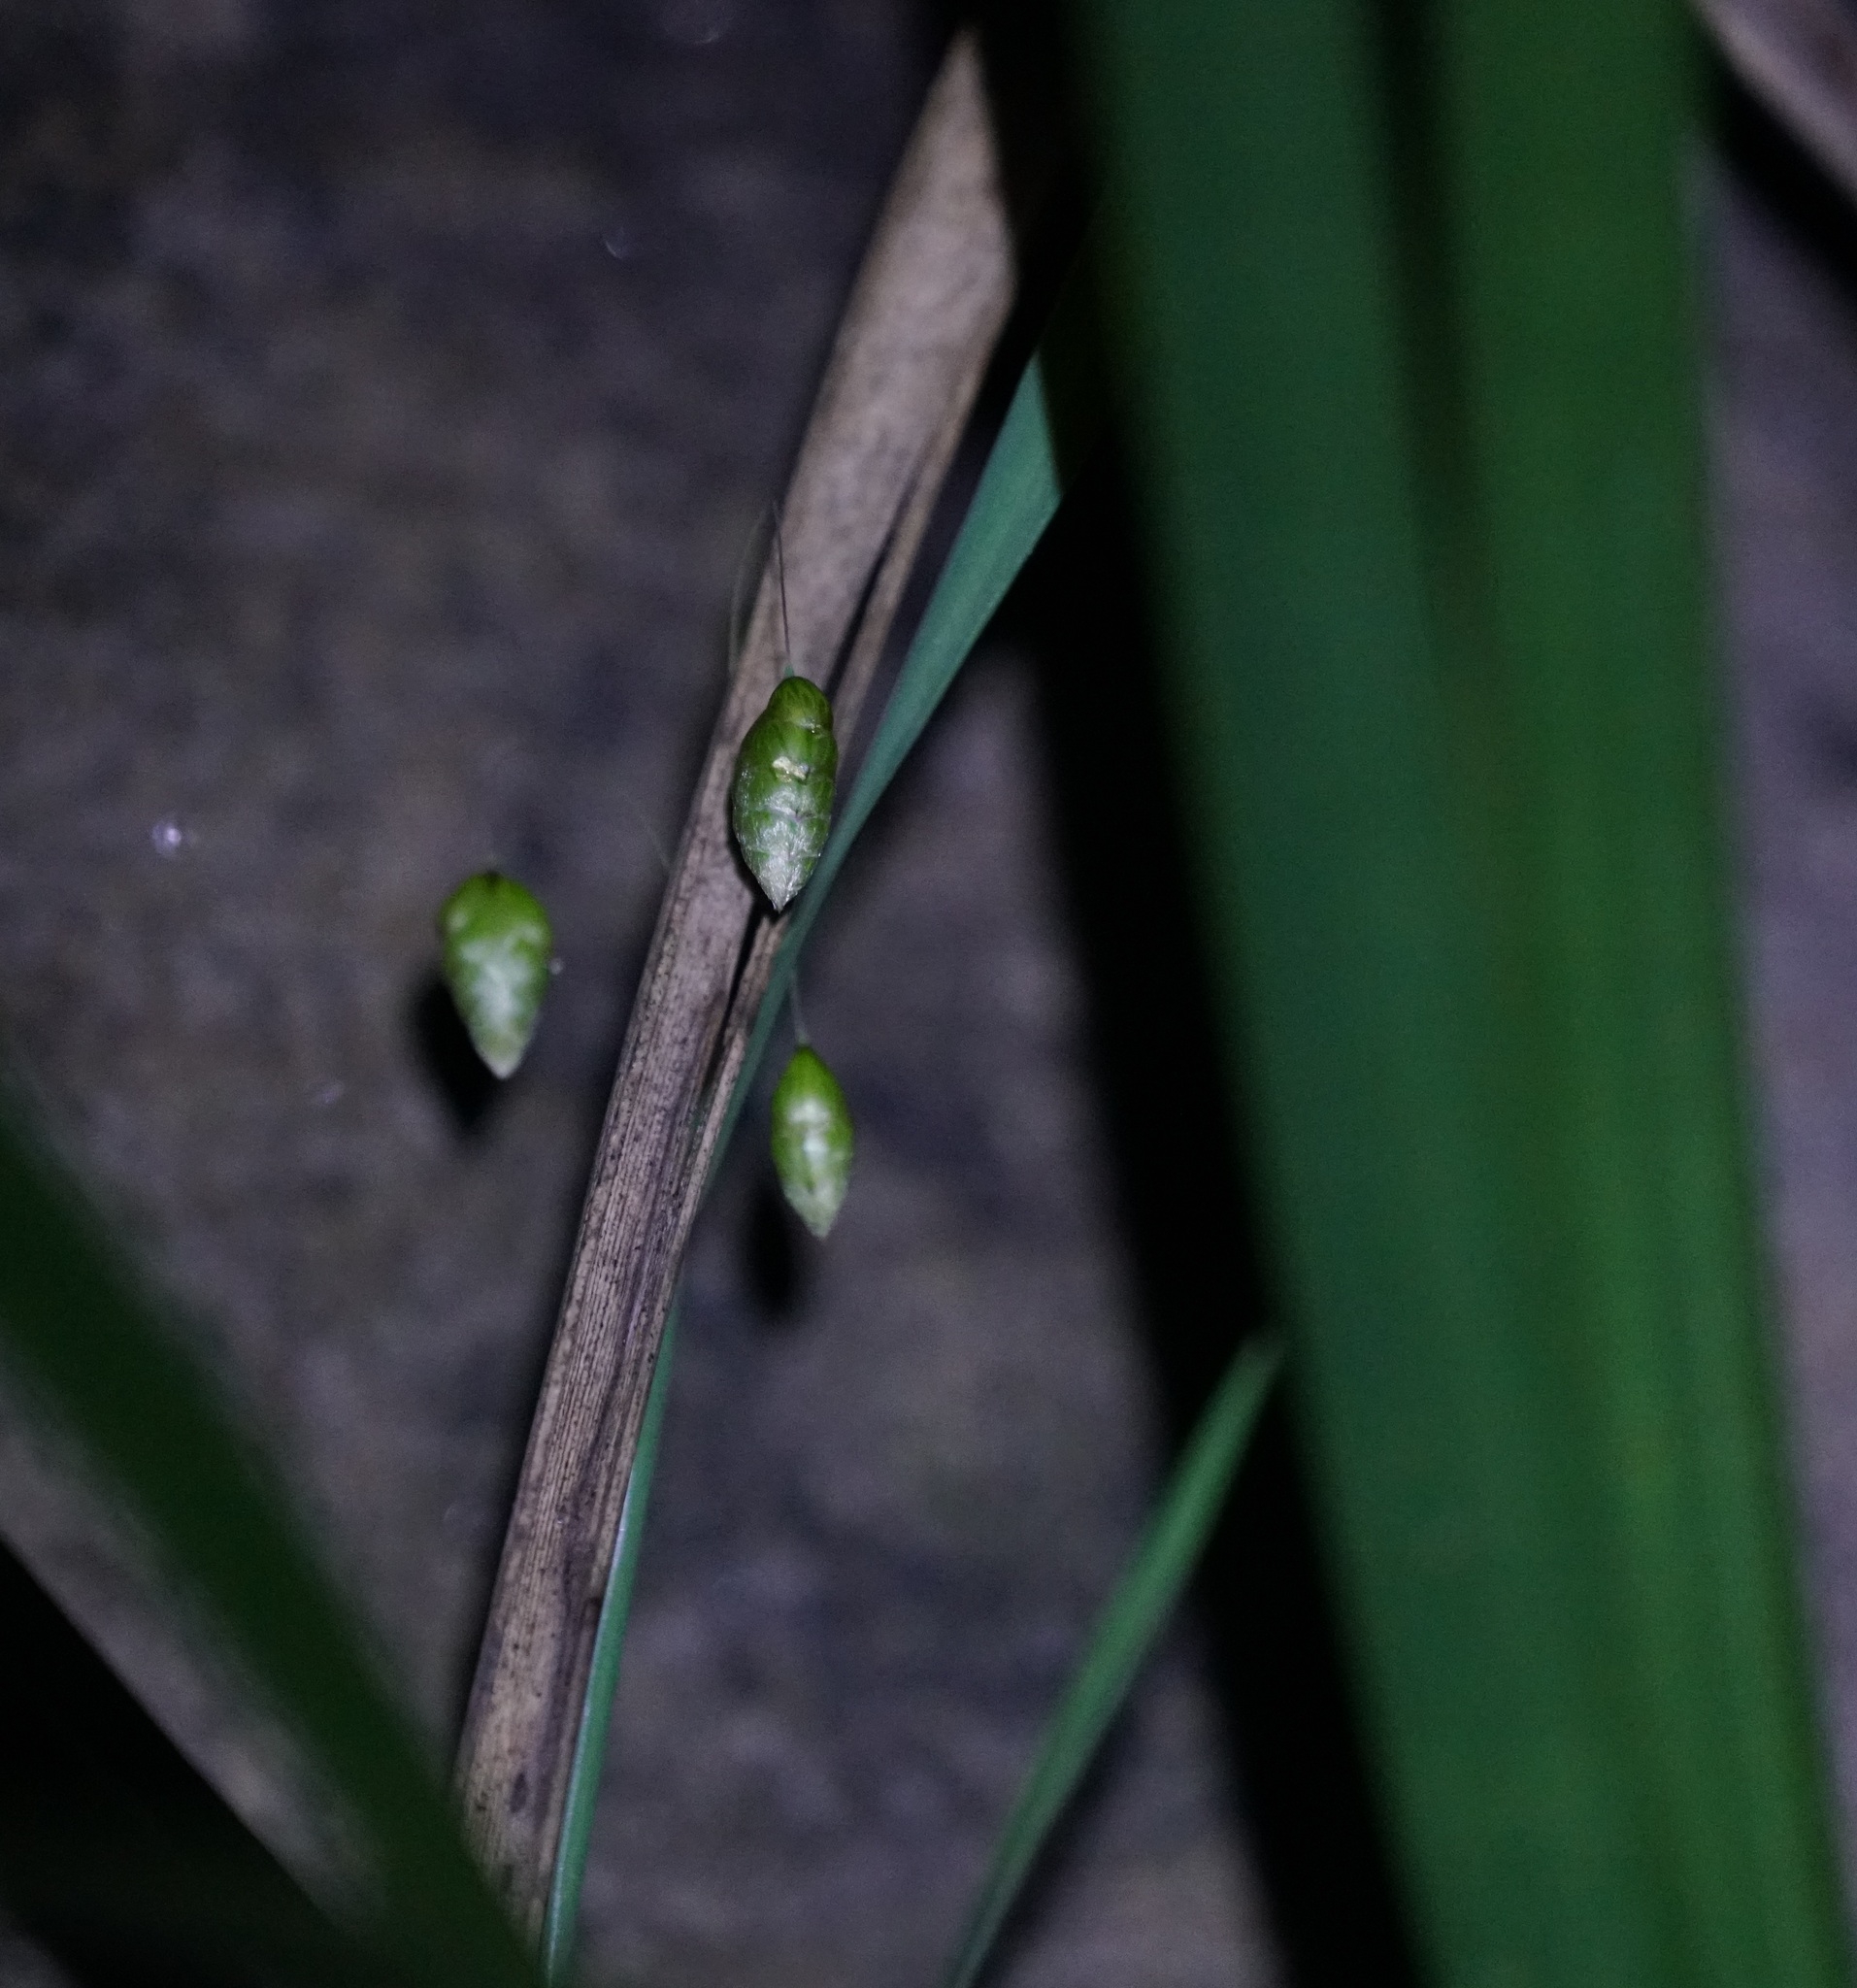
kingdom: Plantae
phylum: Tracheophyta
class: Liliopsida
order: Poales
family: Poaceae
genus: Briza
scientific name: Briza maxima
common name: Big quakinggrass
